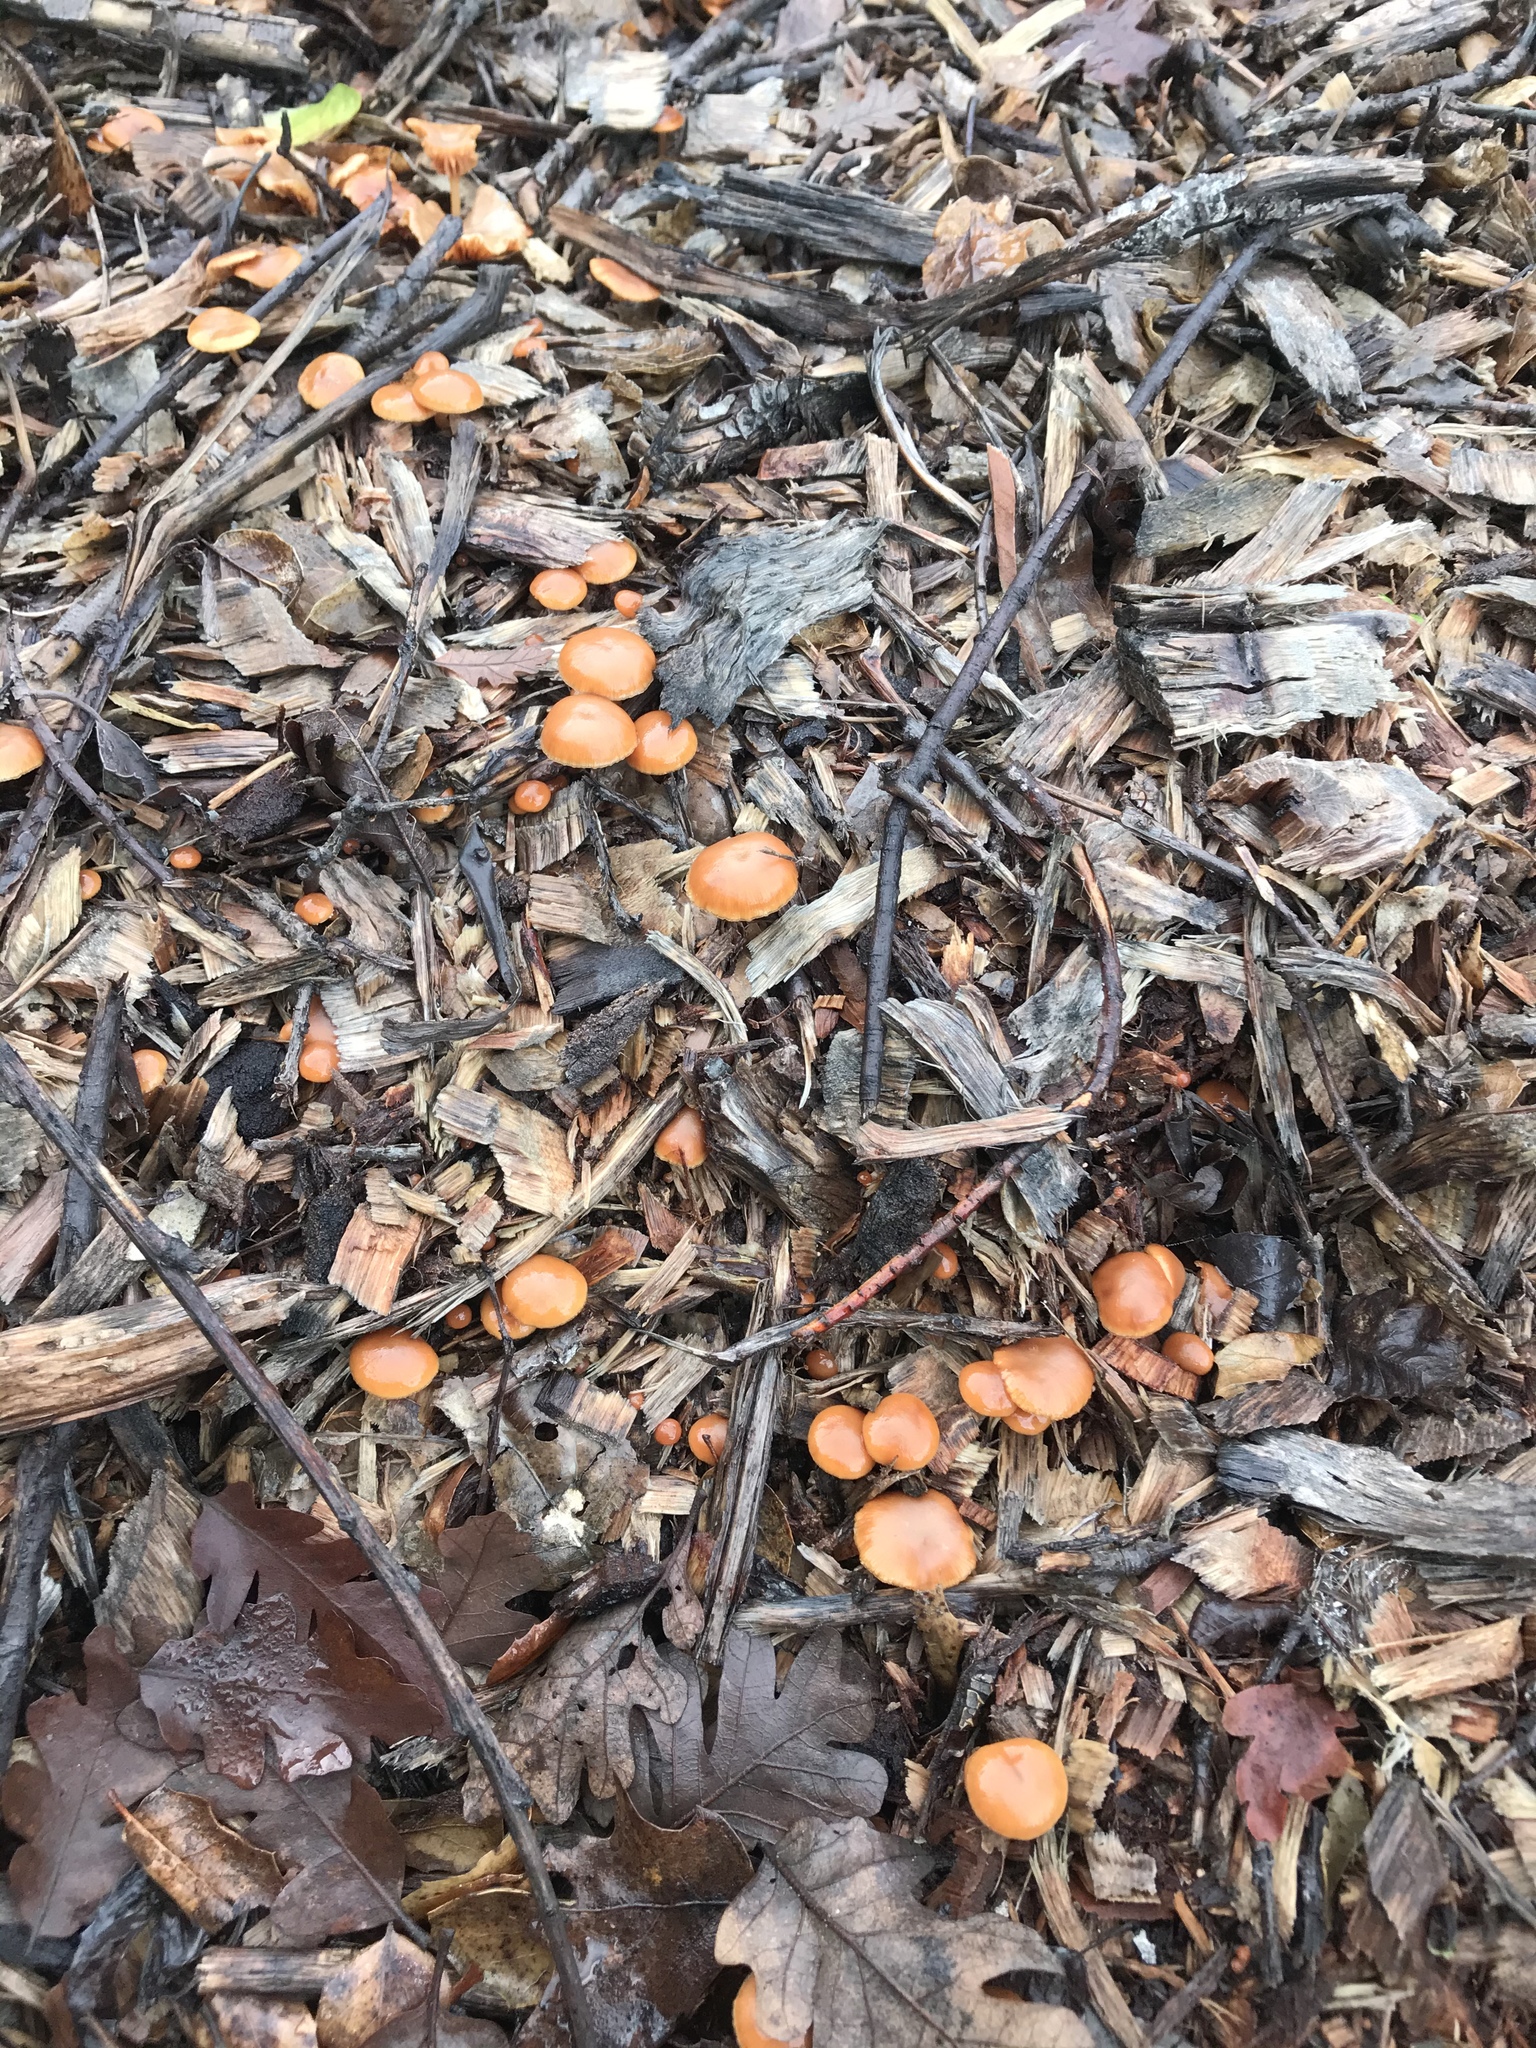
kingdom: Fungi
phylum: Basidiomycota
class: Agaricomycetes
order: Agaricales
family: Tubariaceae
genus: Tubaria
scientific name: Tubaria furfuracea
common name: Scurfy twiglet
